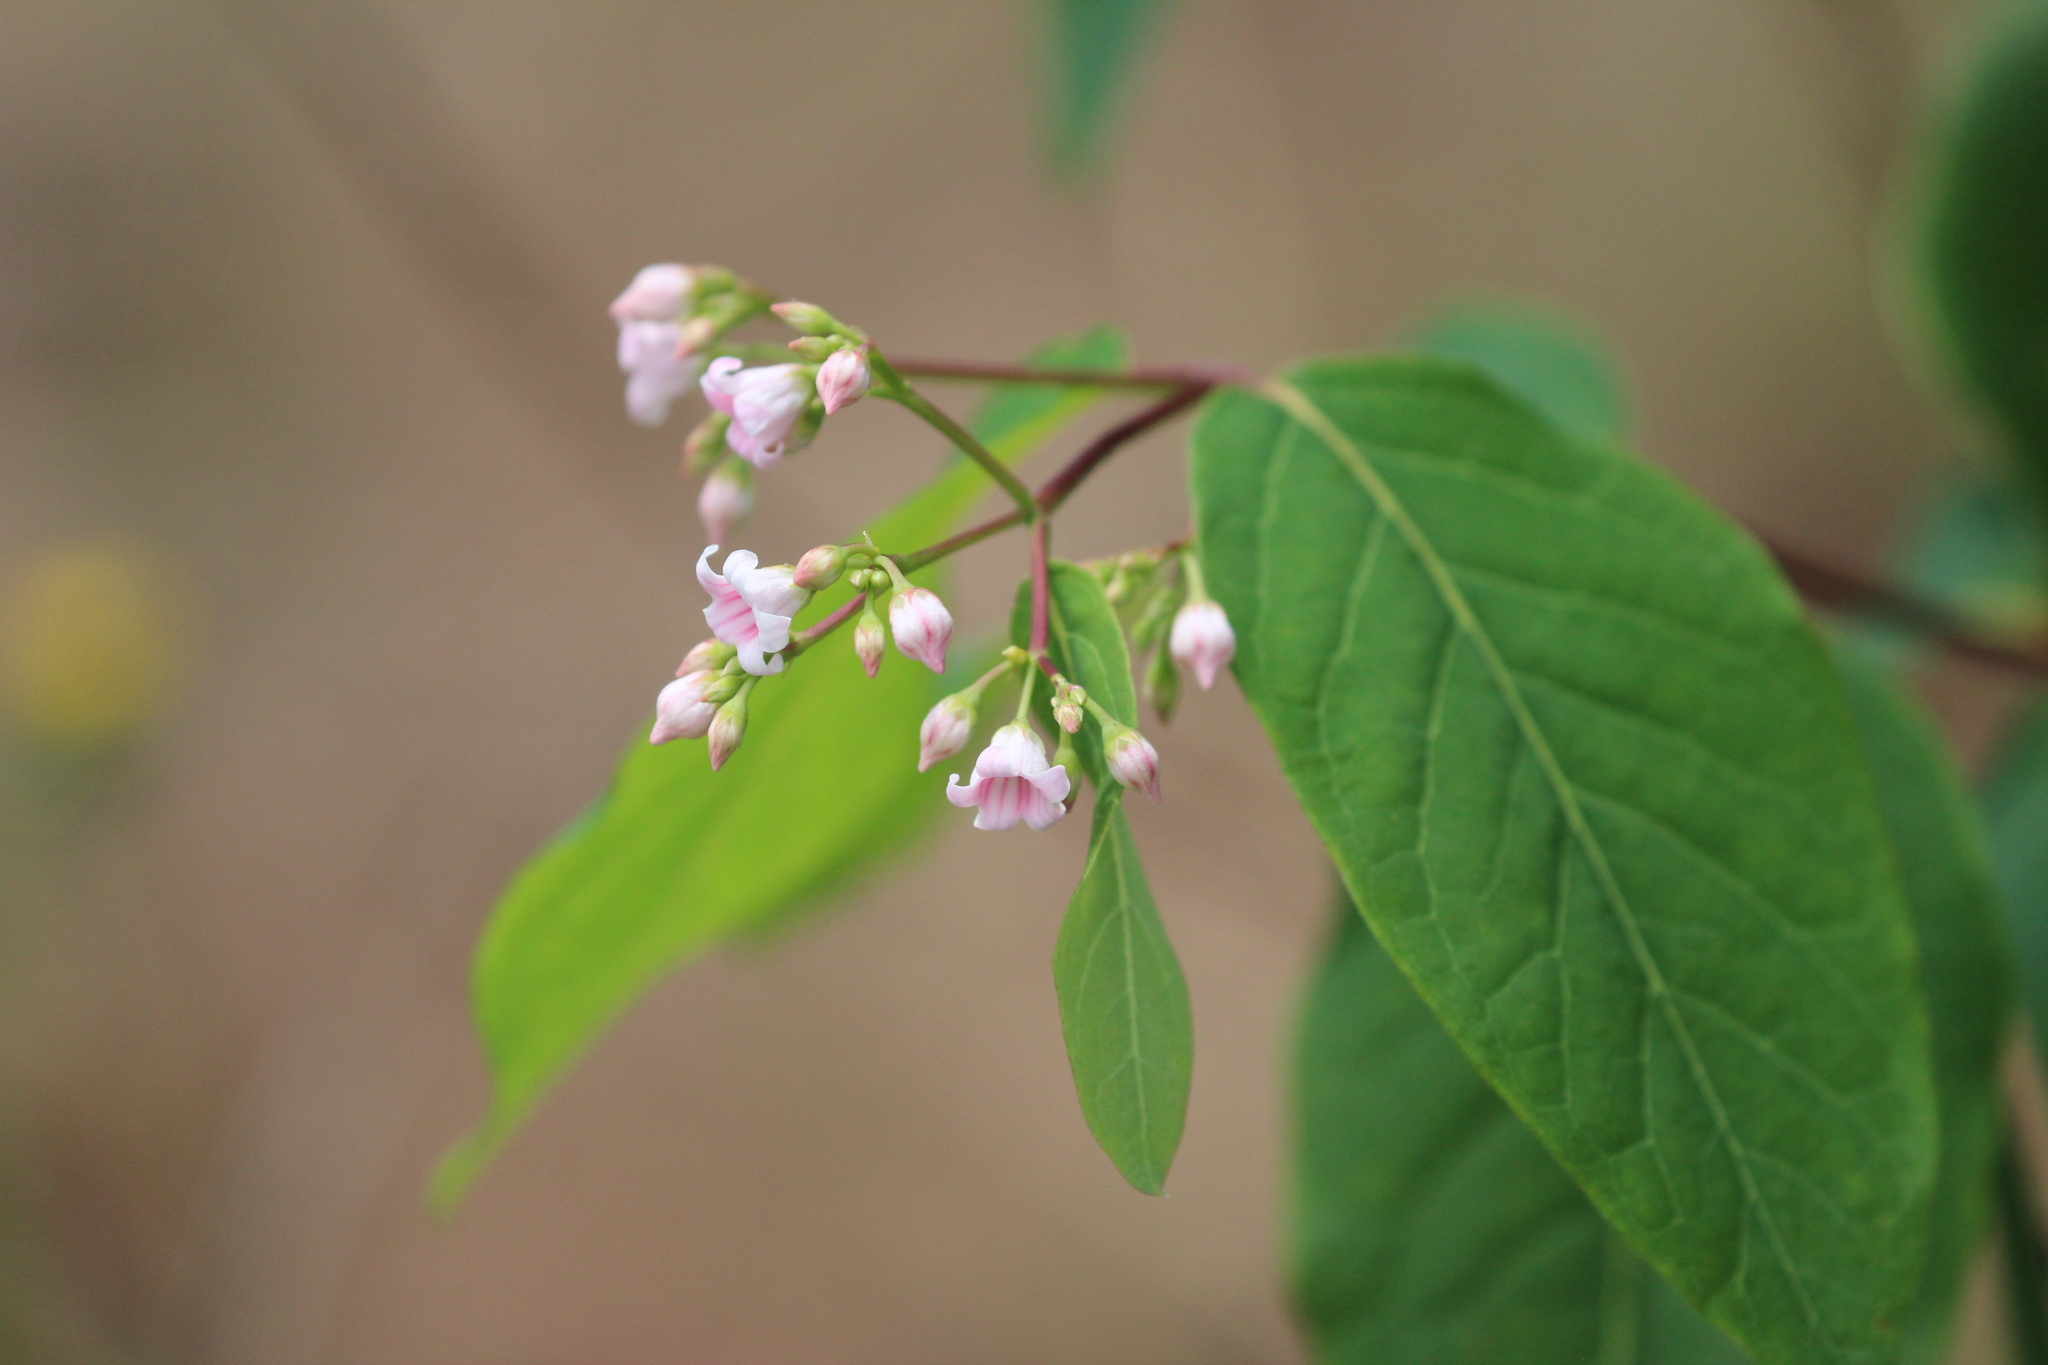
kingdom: Plantae
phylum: Tracheophyta
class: Magnoliopsida
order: Gentianales
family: Apocynaceae
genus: Apocynum
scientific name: Apocynum androsaemifolium
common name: Spreading dogbane
